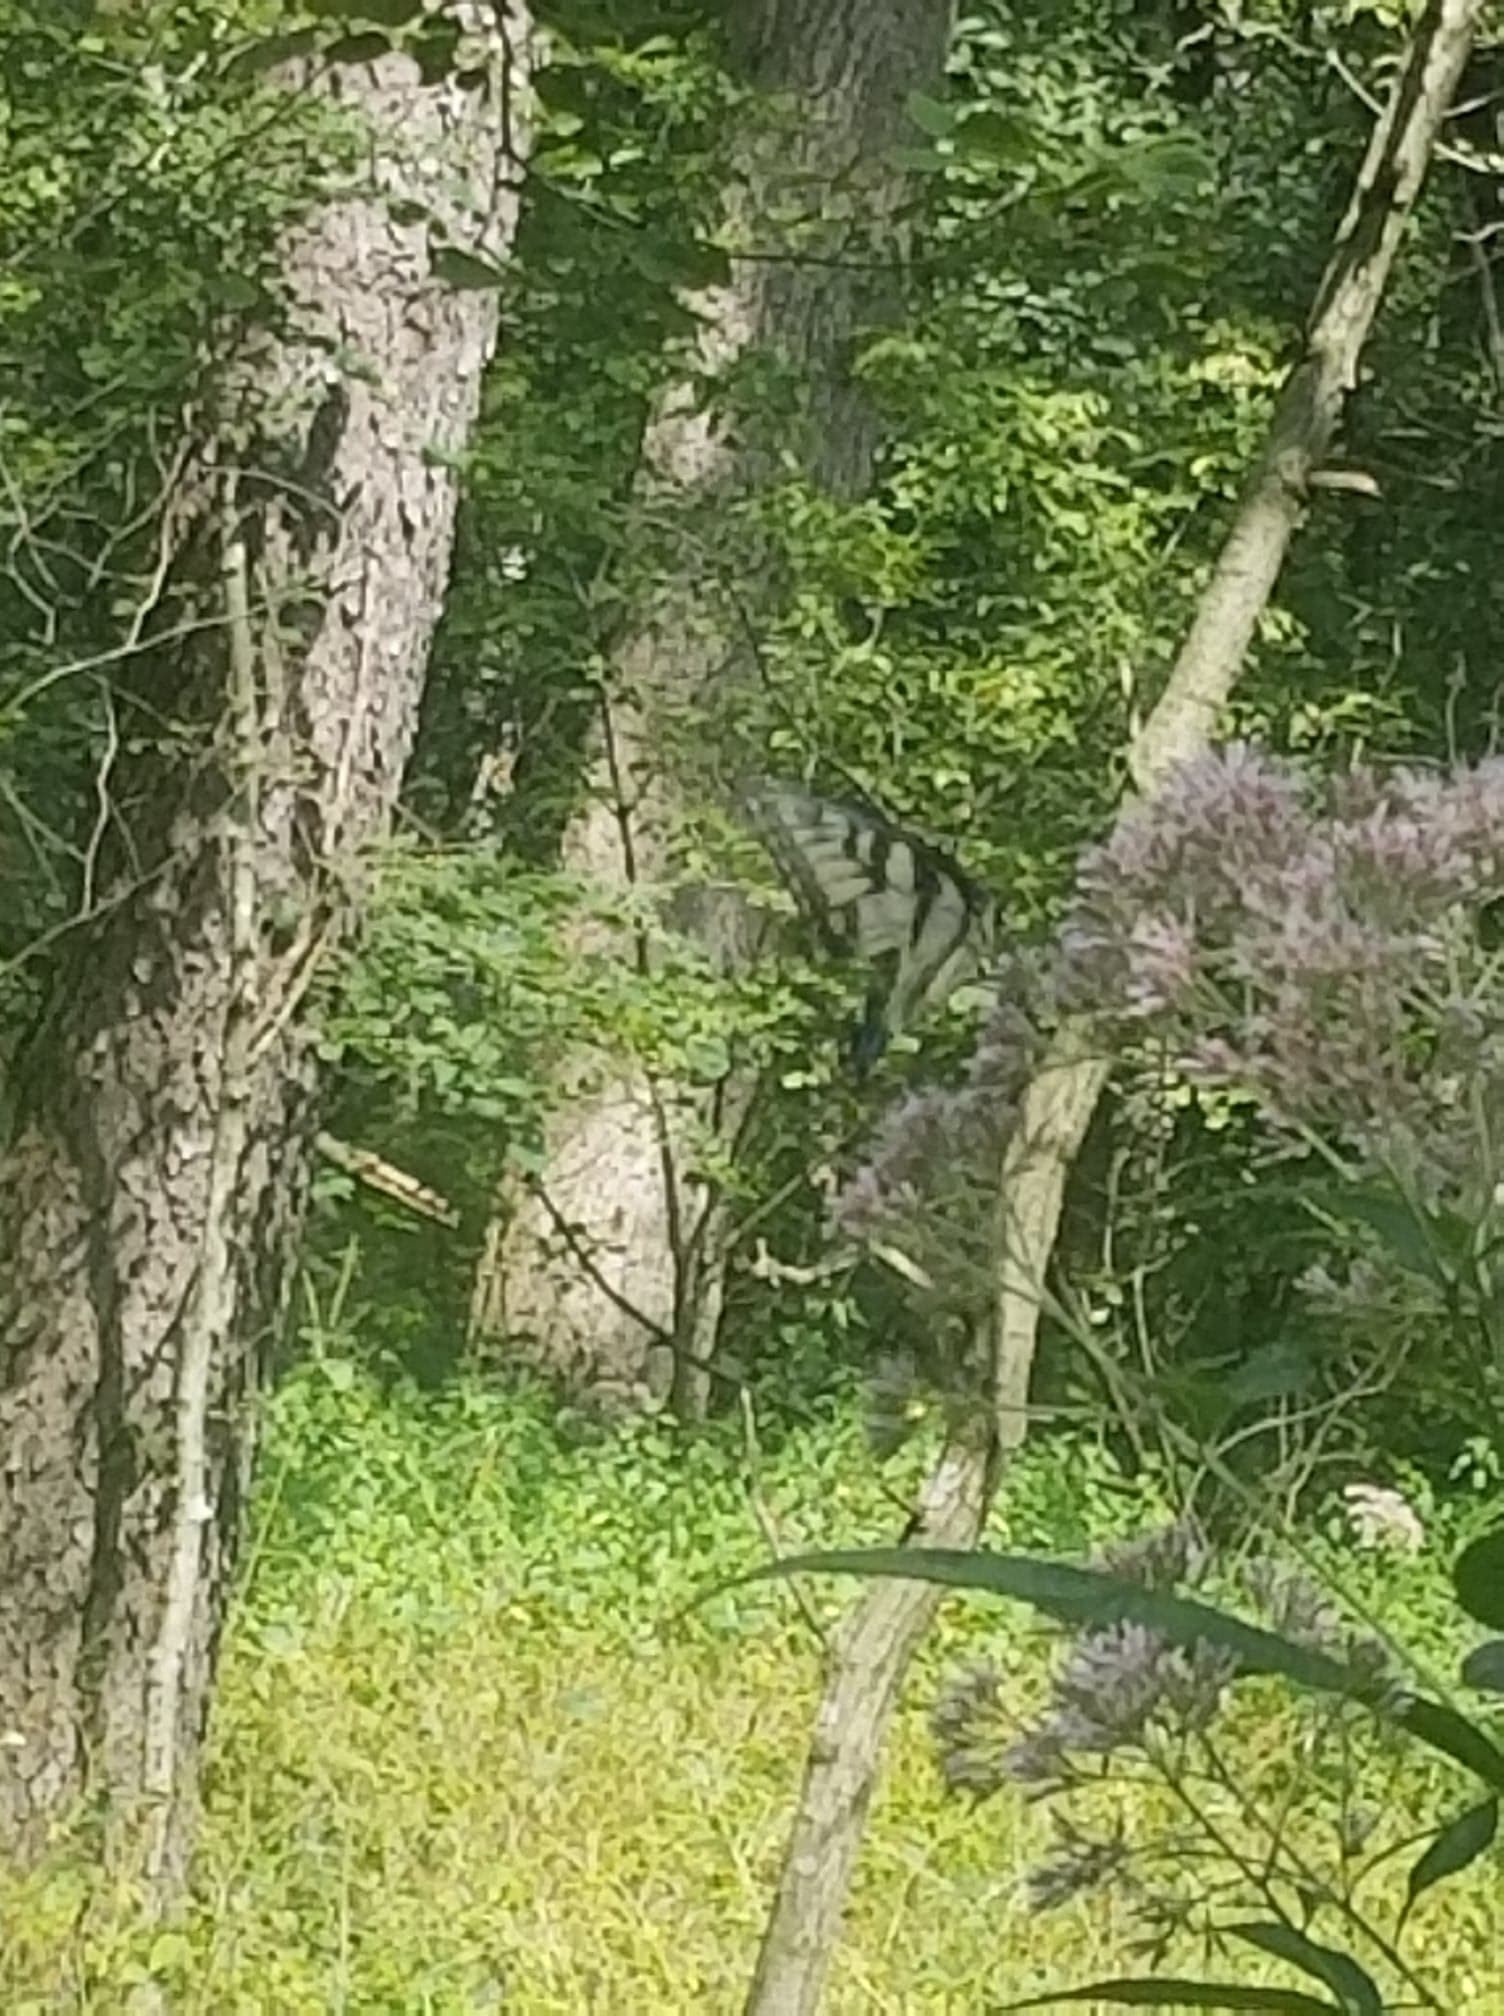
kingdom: Animalia
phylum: Arthropoda
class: Insecta
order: Lepidoptera
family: Papilionidae
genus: Papilio
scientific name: Papilio glaucus
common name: Tiger swallowtail
